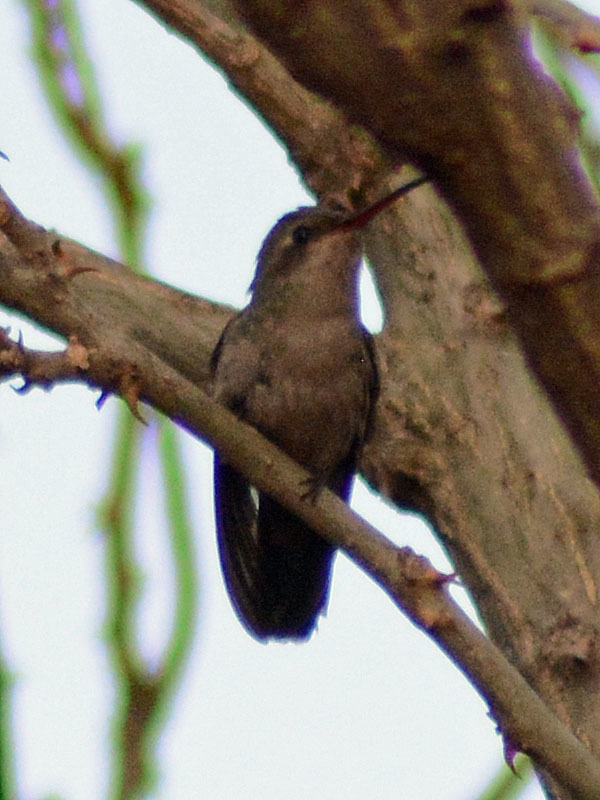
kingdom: Animalia
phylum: Chordata
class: Aves
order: Apodiformes
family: Trochilidae
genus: Cynanthus
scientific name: Cynanthus latirostris
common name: Broad-billed hummingbird
